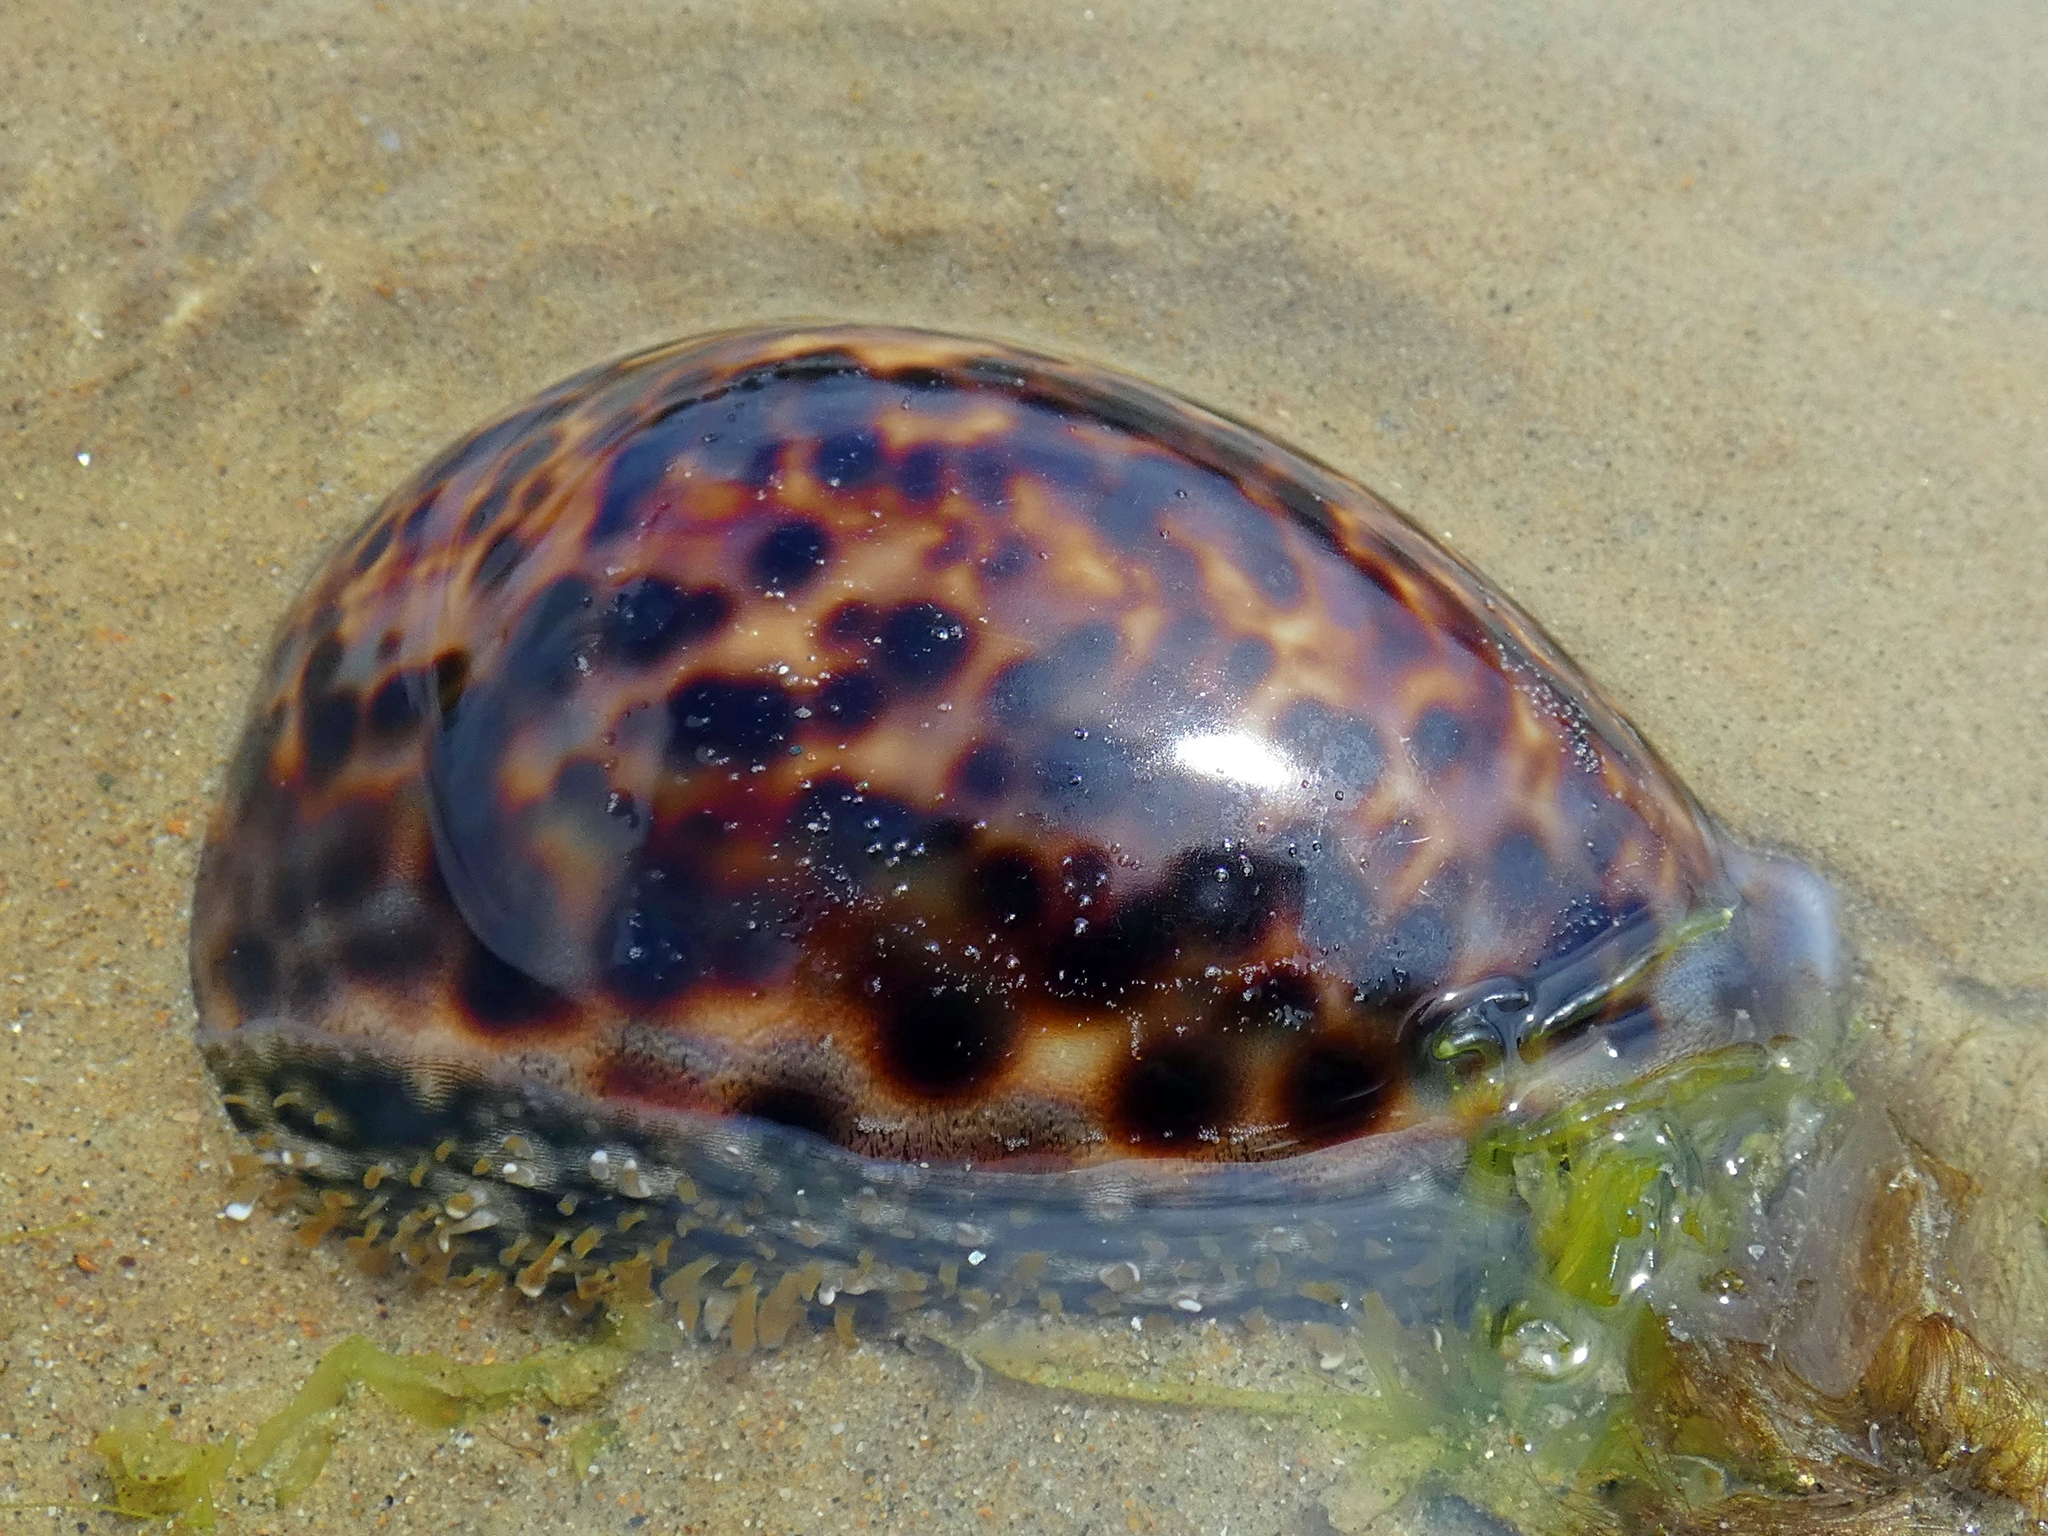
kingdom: Animalia
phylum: Mollusca
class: Gastropoda
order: Littorinimorpha
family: Cypraeidae
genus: Cypraea
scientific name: Cypraea tigris
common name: Tiger cowrie
